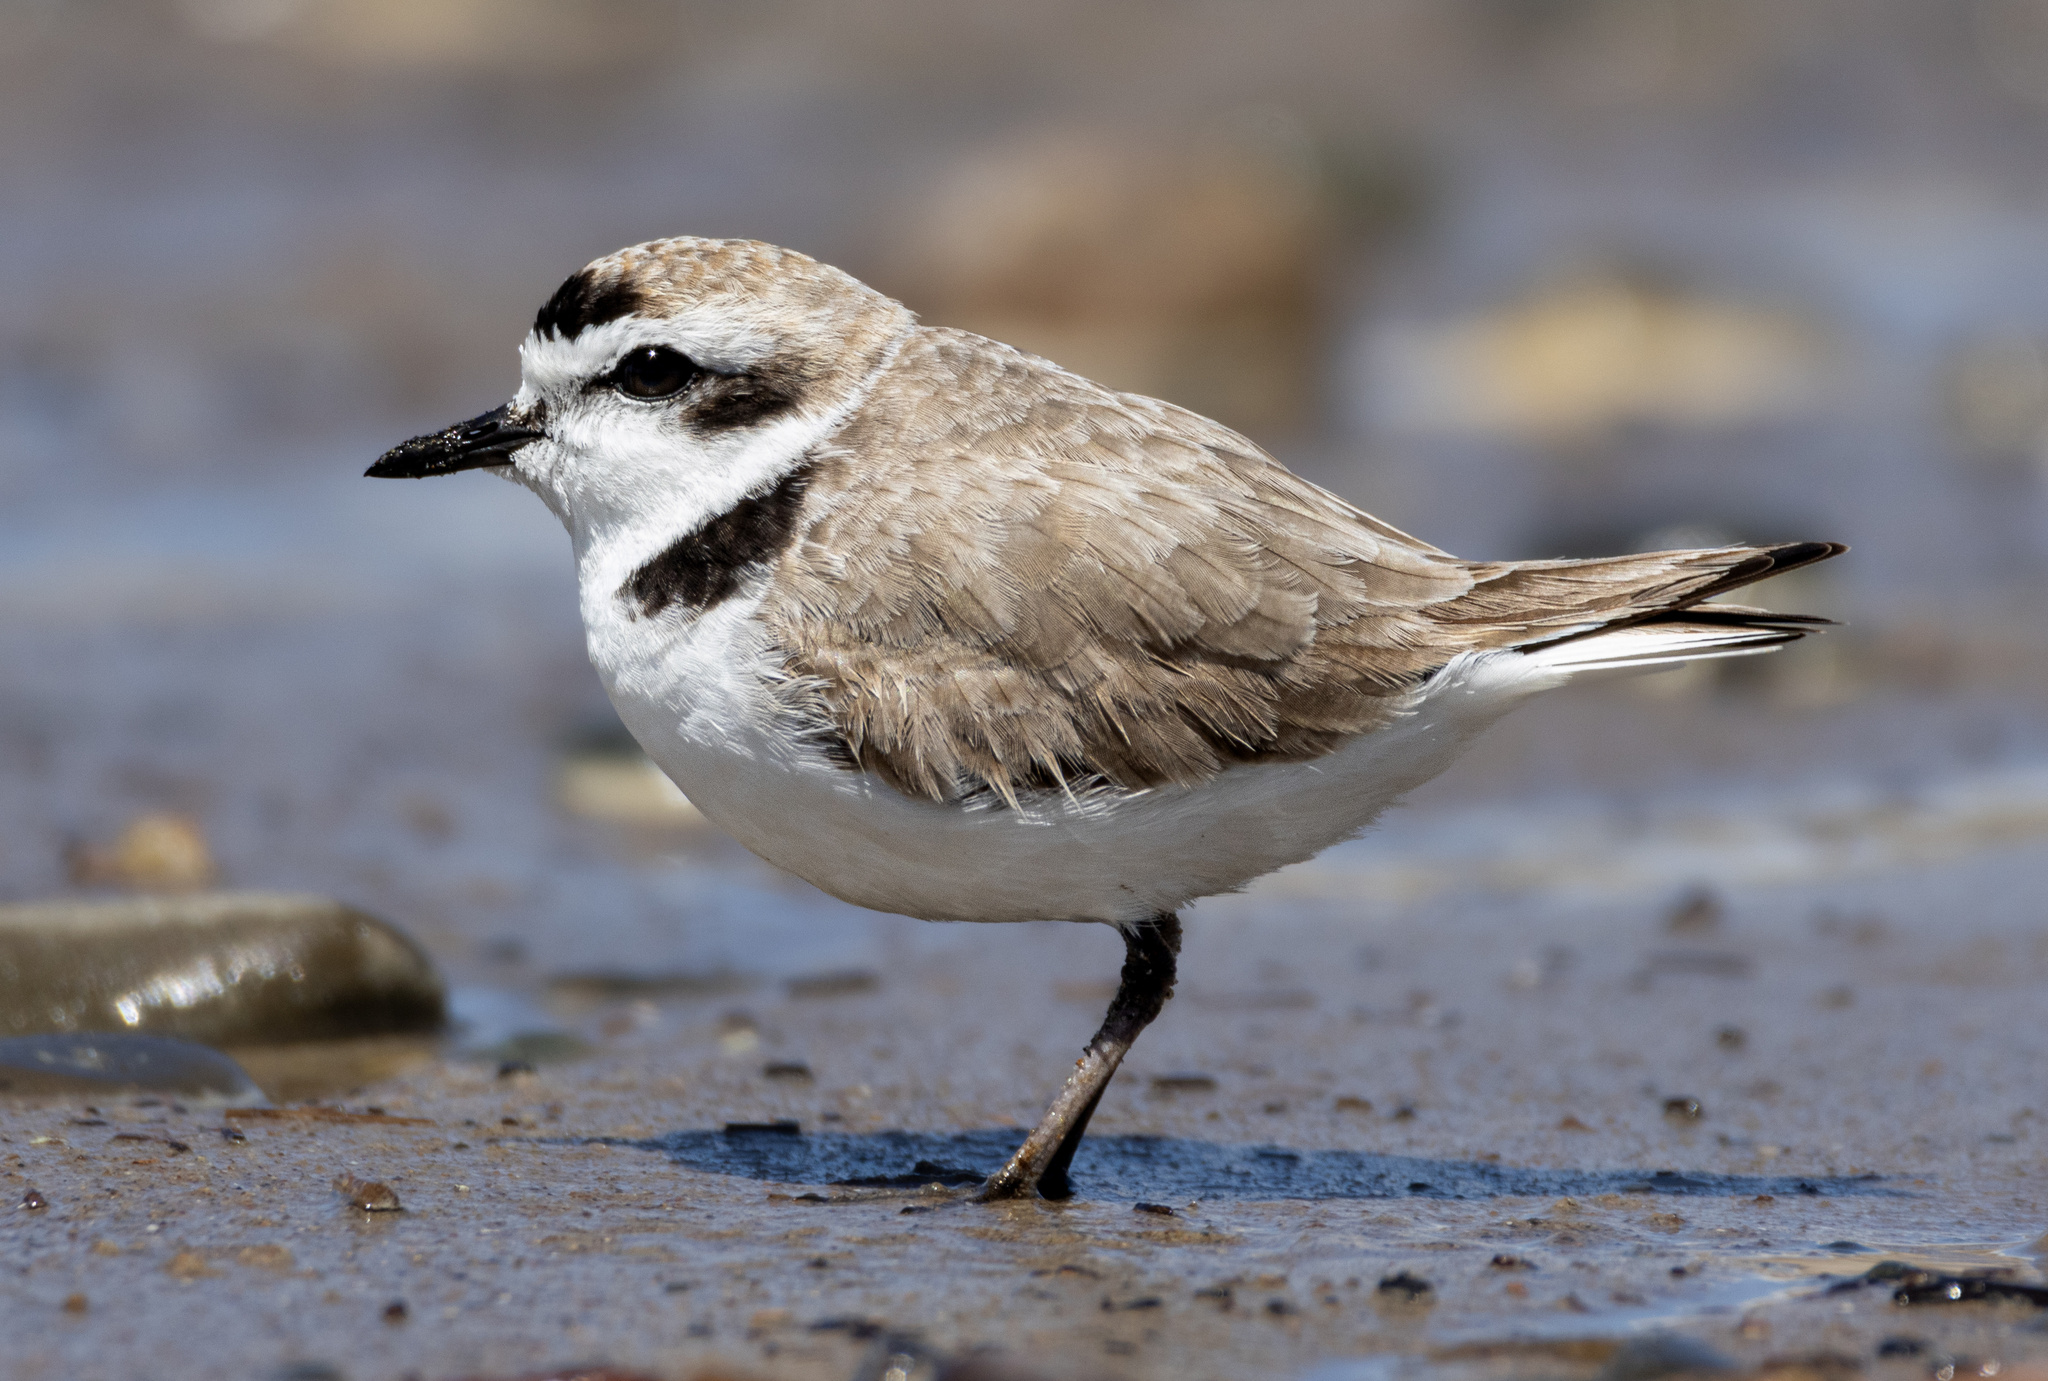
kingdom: Animalia
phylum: Chordata
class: Aves
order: Charadriiformes
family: Charadriidae
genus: Anarhynchus
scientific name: Anarhynchus
